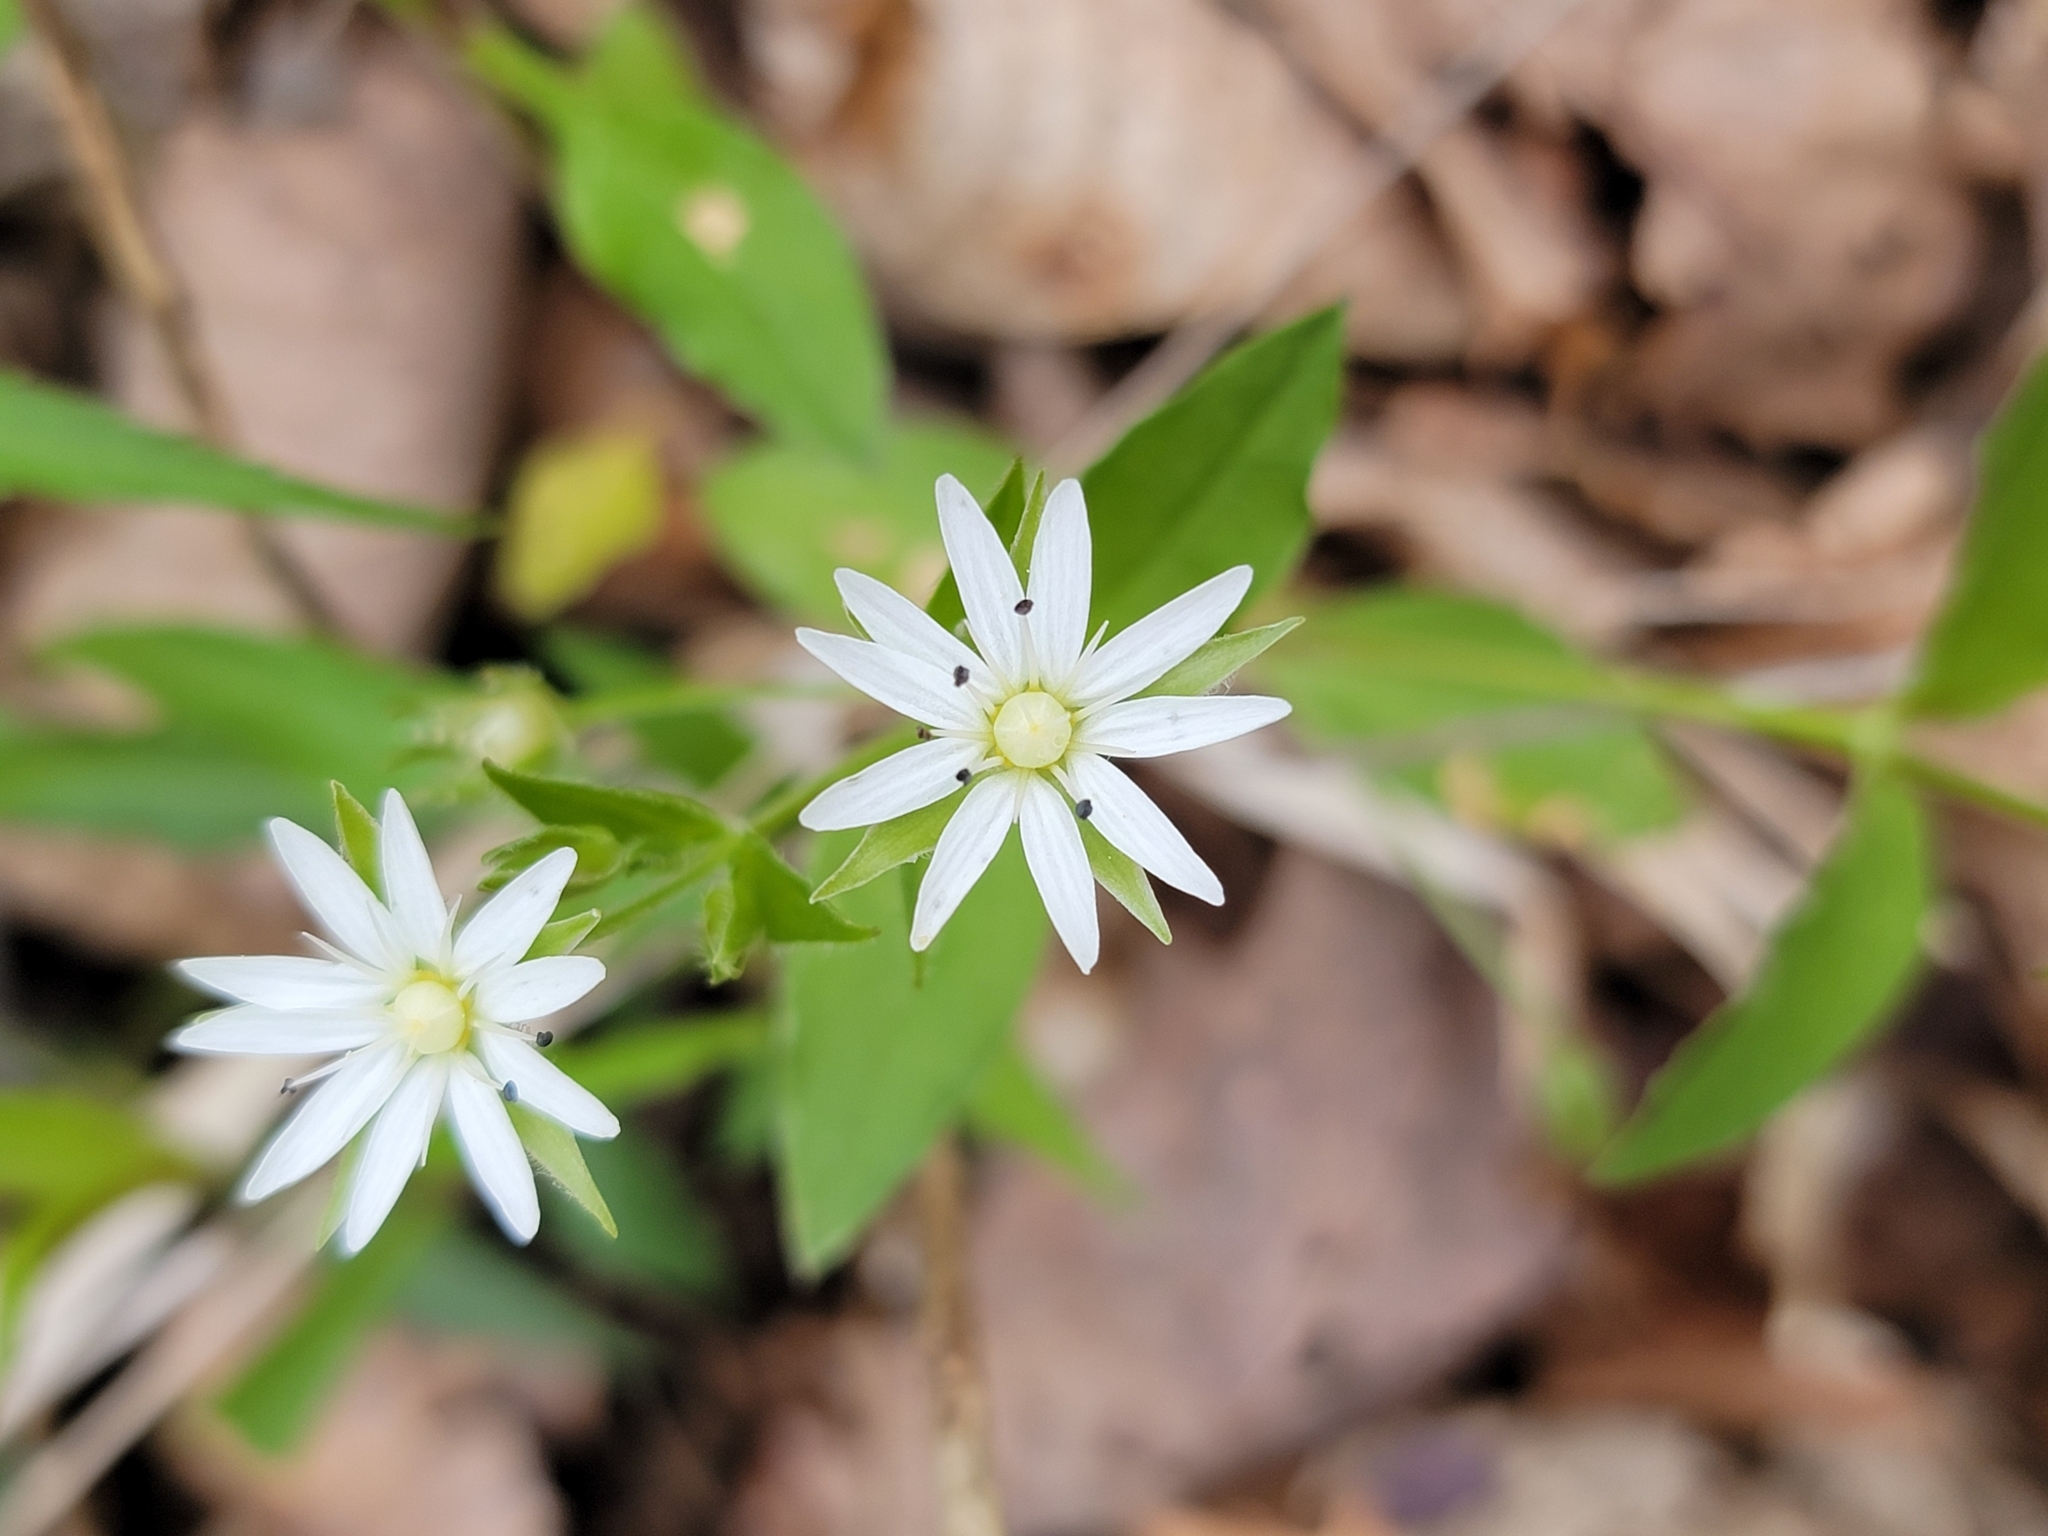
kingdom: Plantae
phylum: Tracheophyta
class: Magnoliopsida
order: Caryophyllales
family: Caryophyllaceae
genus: Stellaria
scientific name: Stellaria corei
